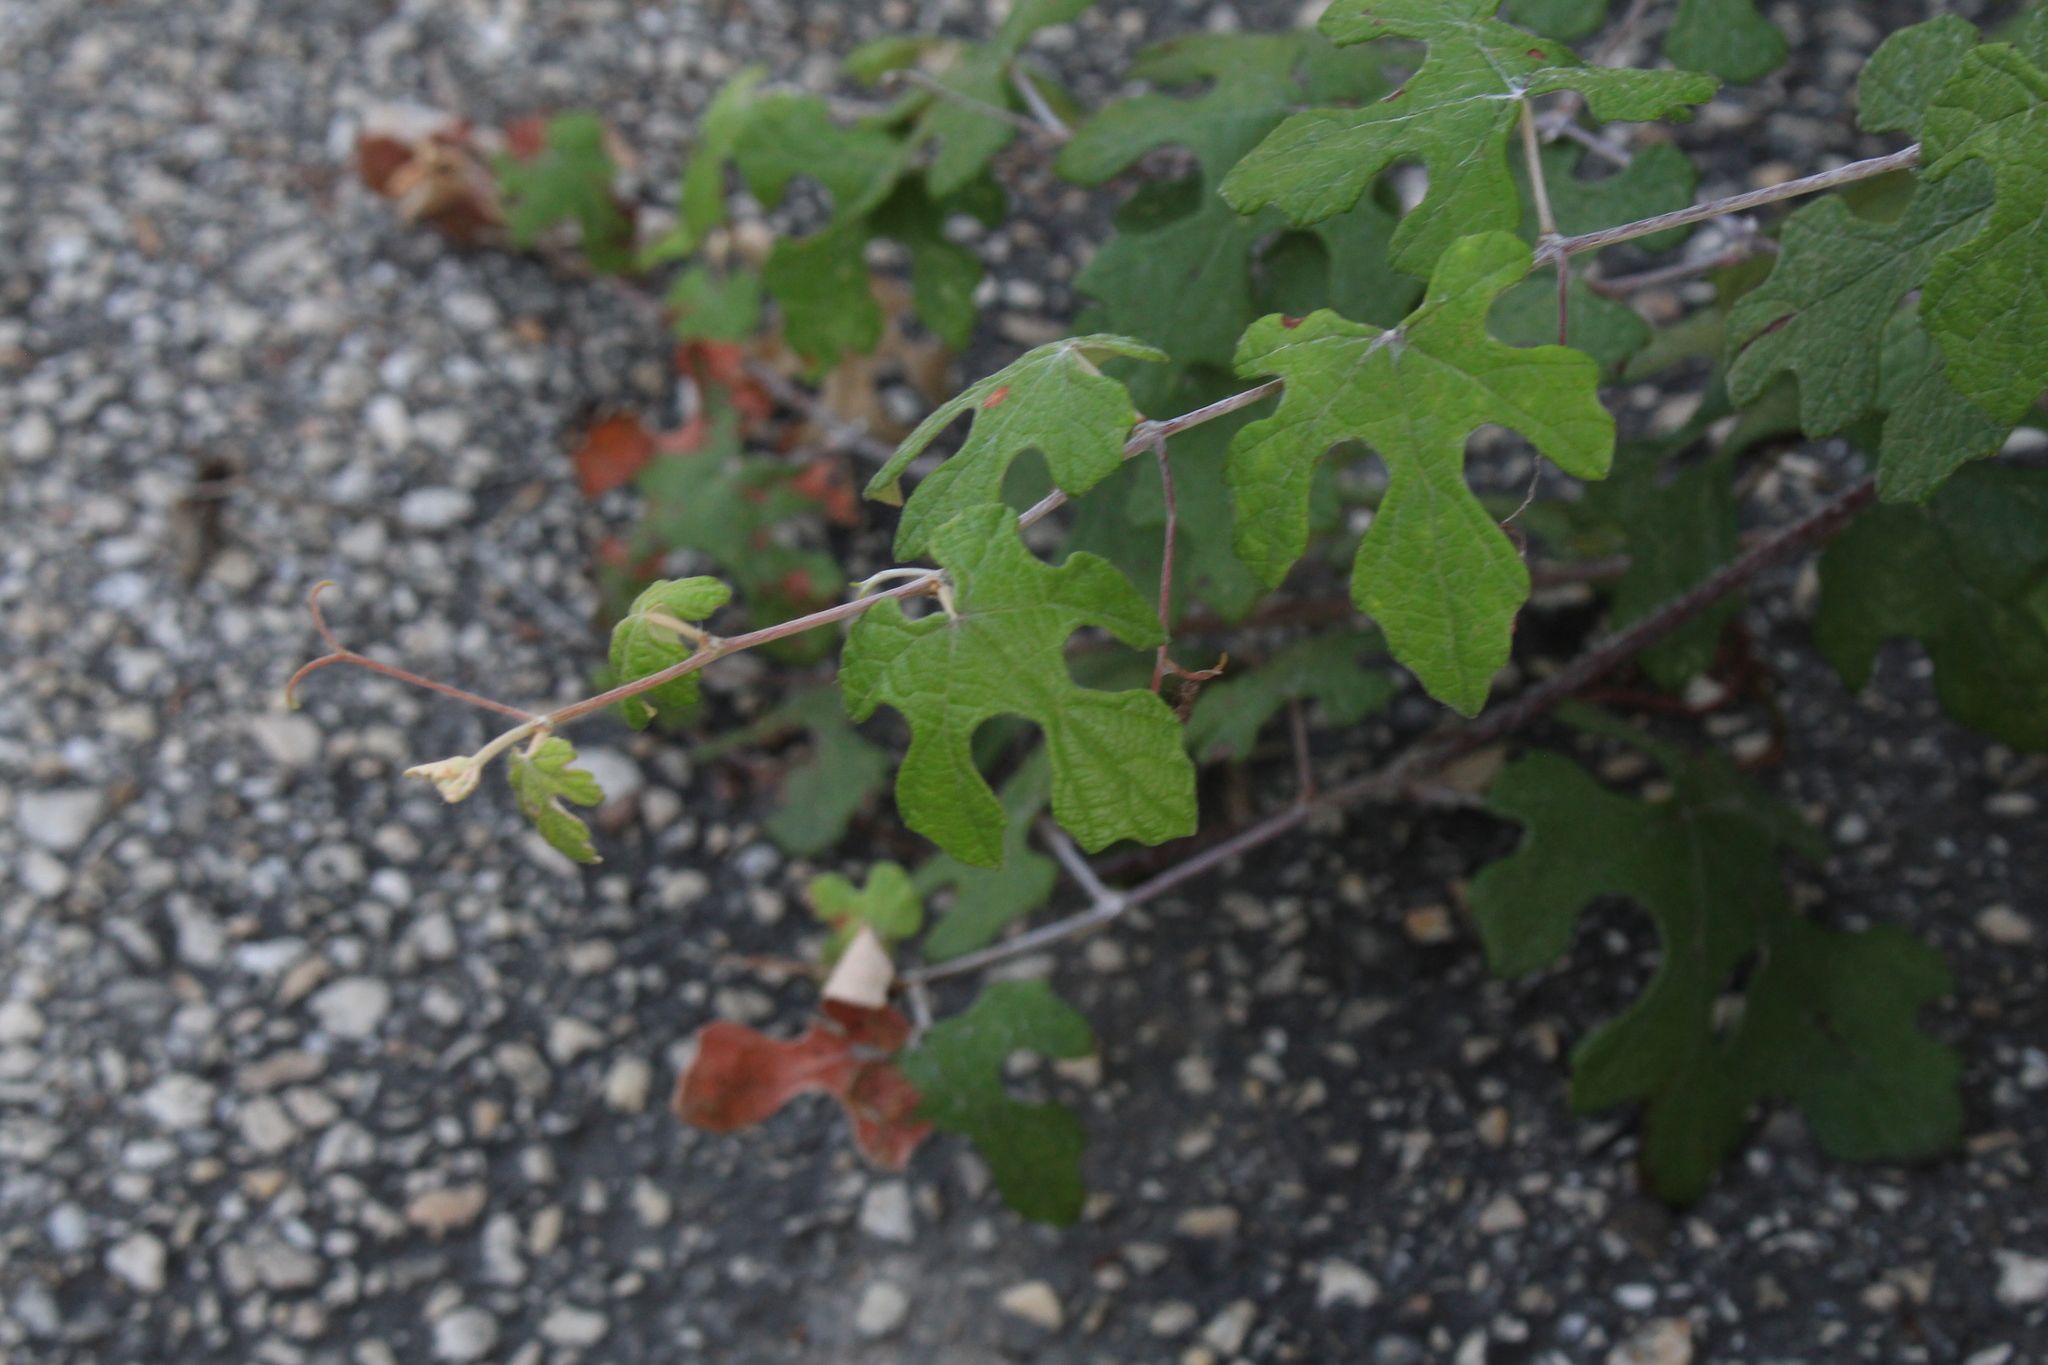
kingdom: Plantae
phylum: Tracheophyta
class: Magnoliopsida
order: Vitales
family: Vitaceae
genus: Vitis
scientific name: Vitis mustangensis
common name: Mustang grape
